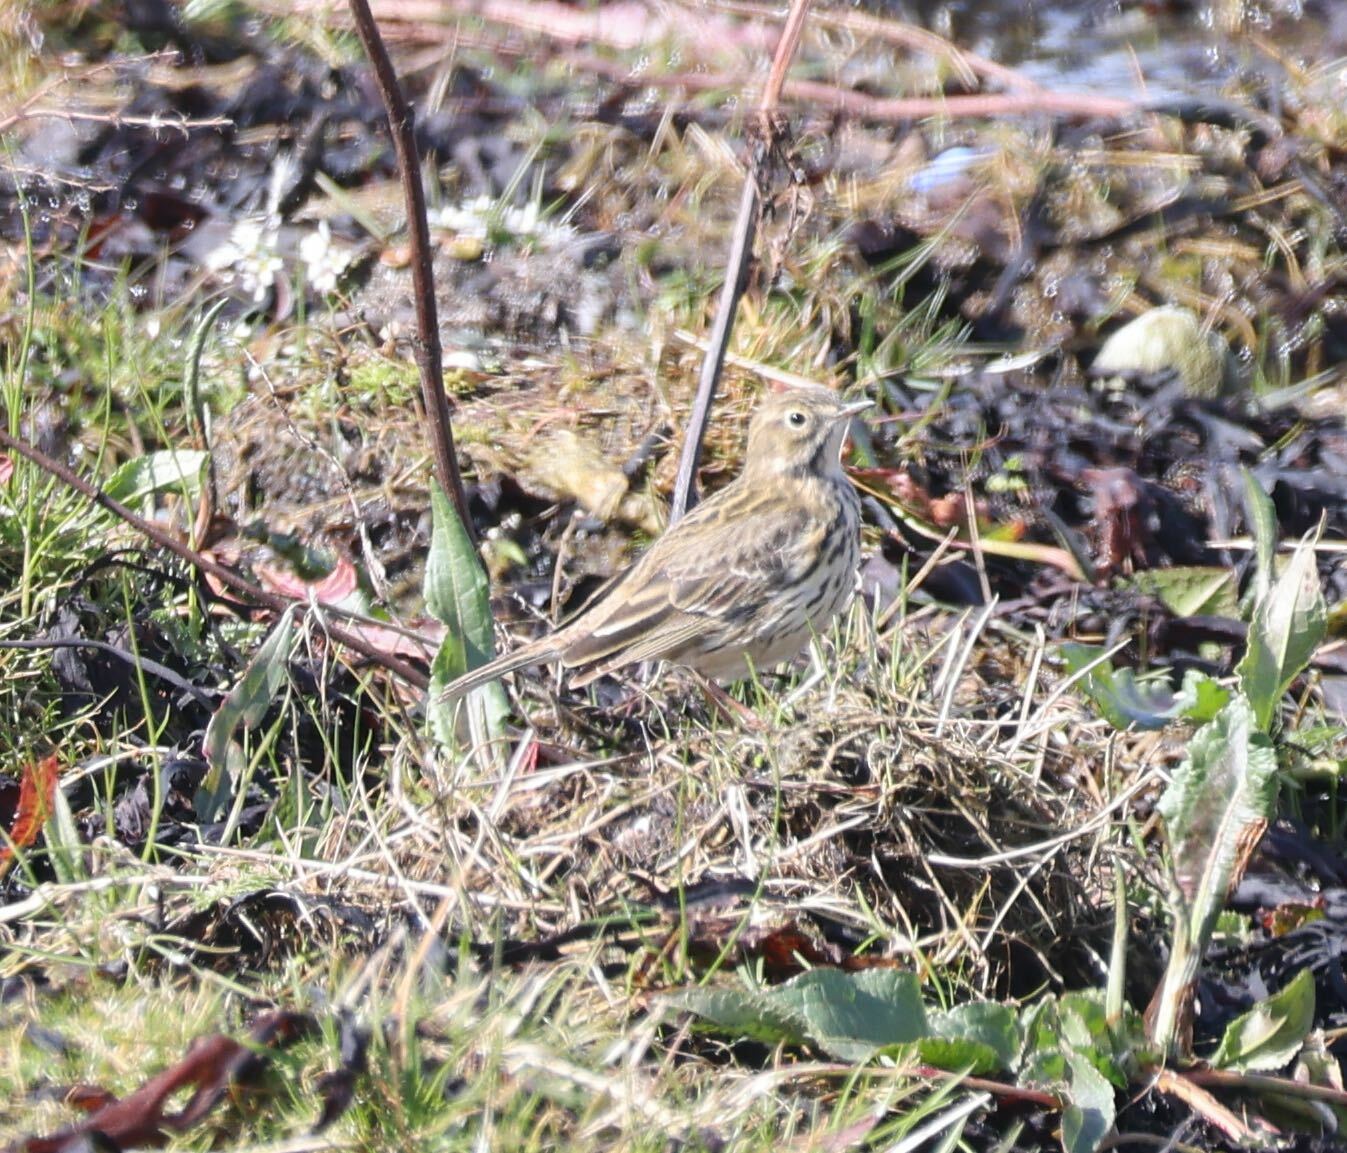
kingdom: Animalia
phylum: Chordata
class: Aves
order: Passeriformes
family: Motacillidae
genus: Anthus
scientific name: Anthus pratensis
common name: Meadow pipit
